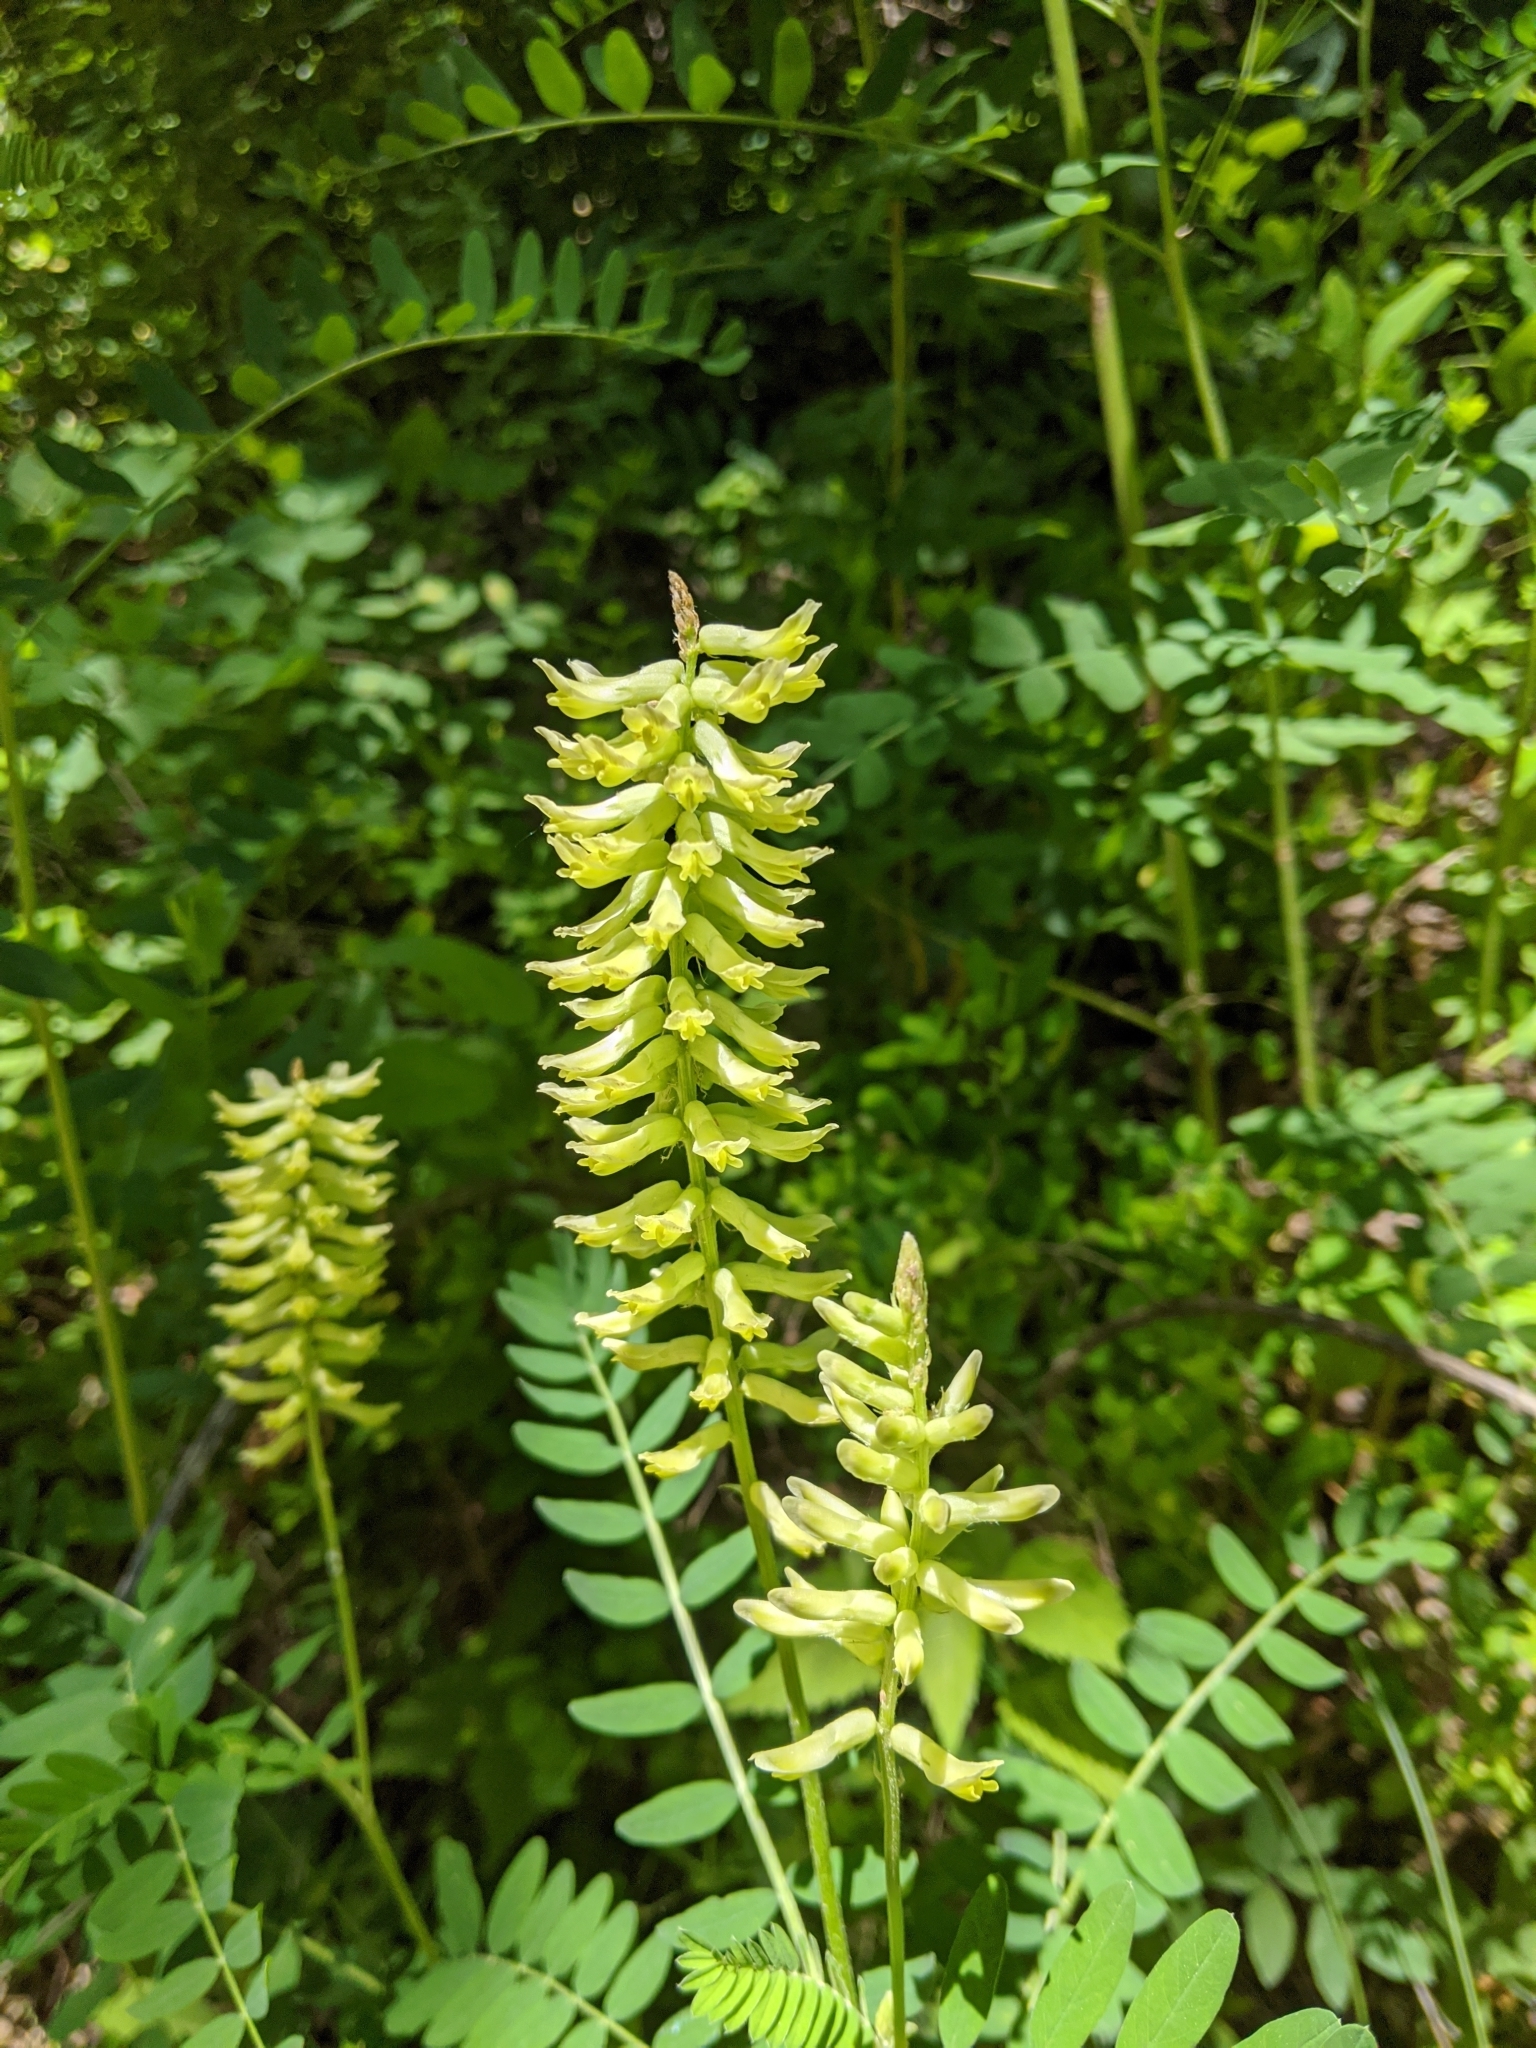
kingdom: Plantae
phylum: Tracheophyta
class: Magnoliopsida
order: Fabales
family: Fabaceae
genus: Astragalus
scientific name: Astragalus canadensis
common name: Canada milk-vetch
